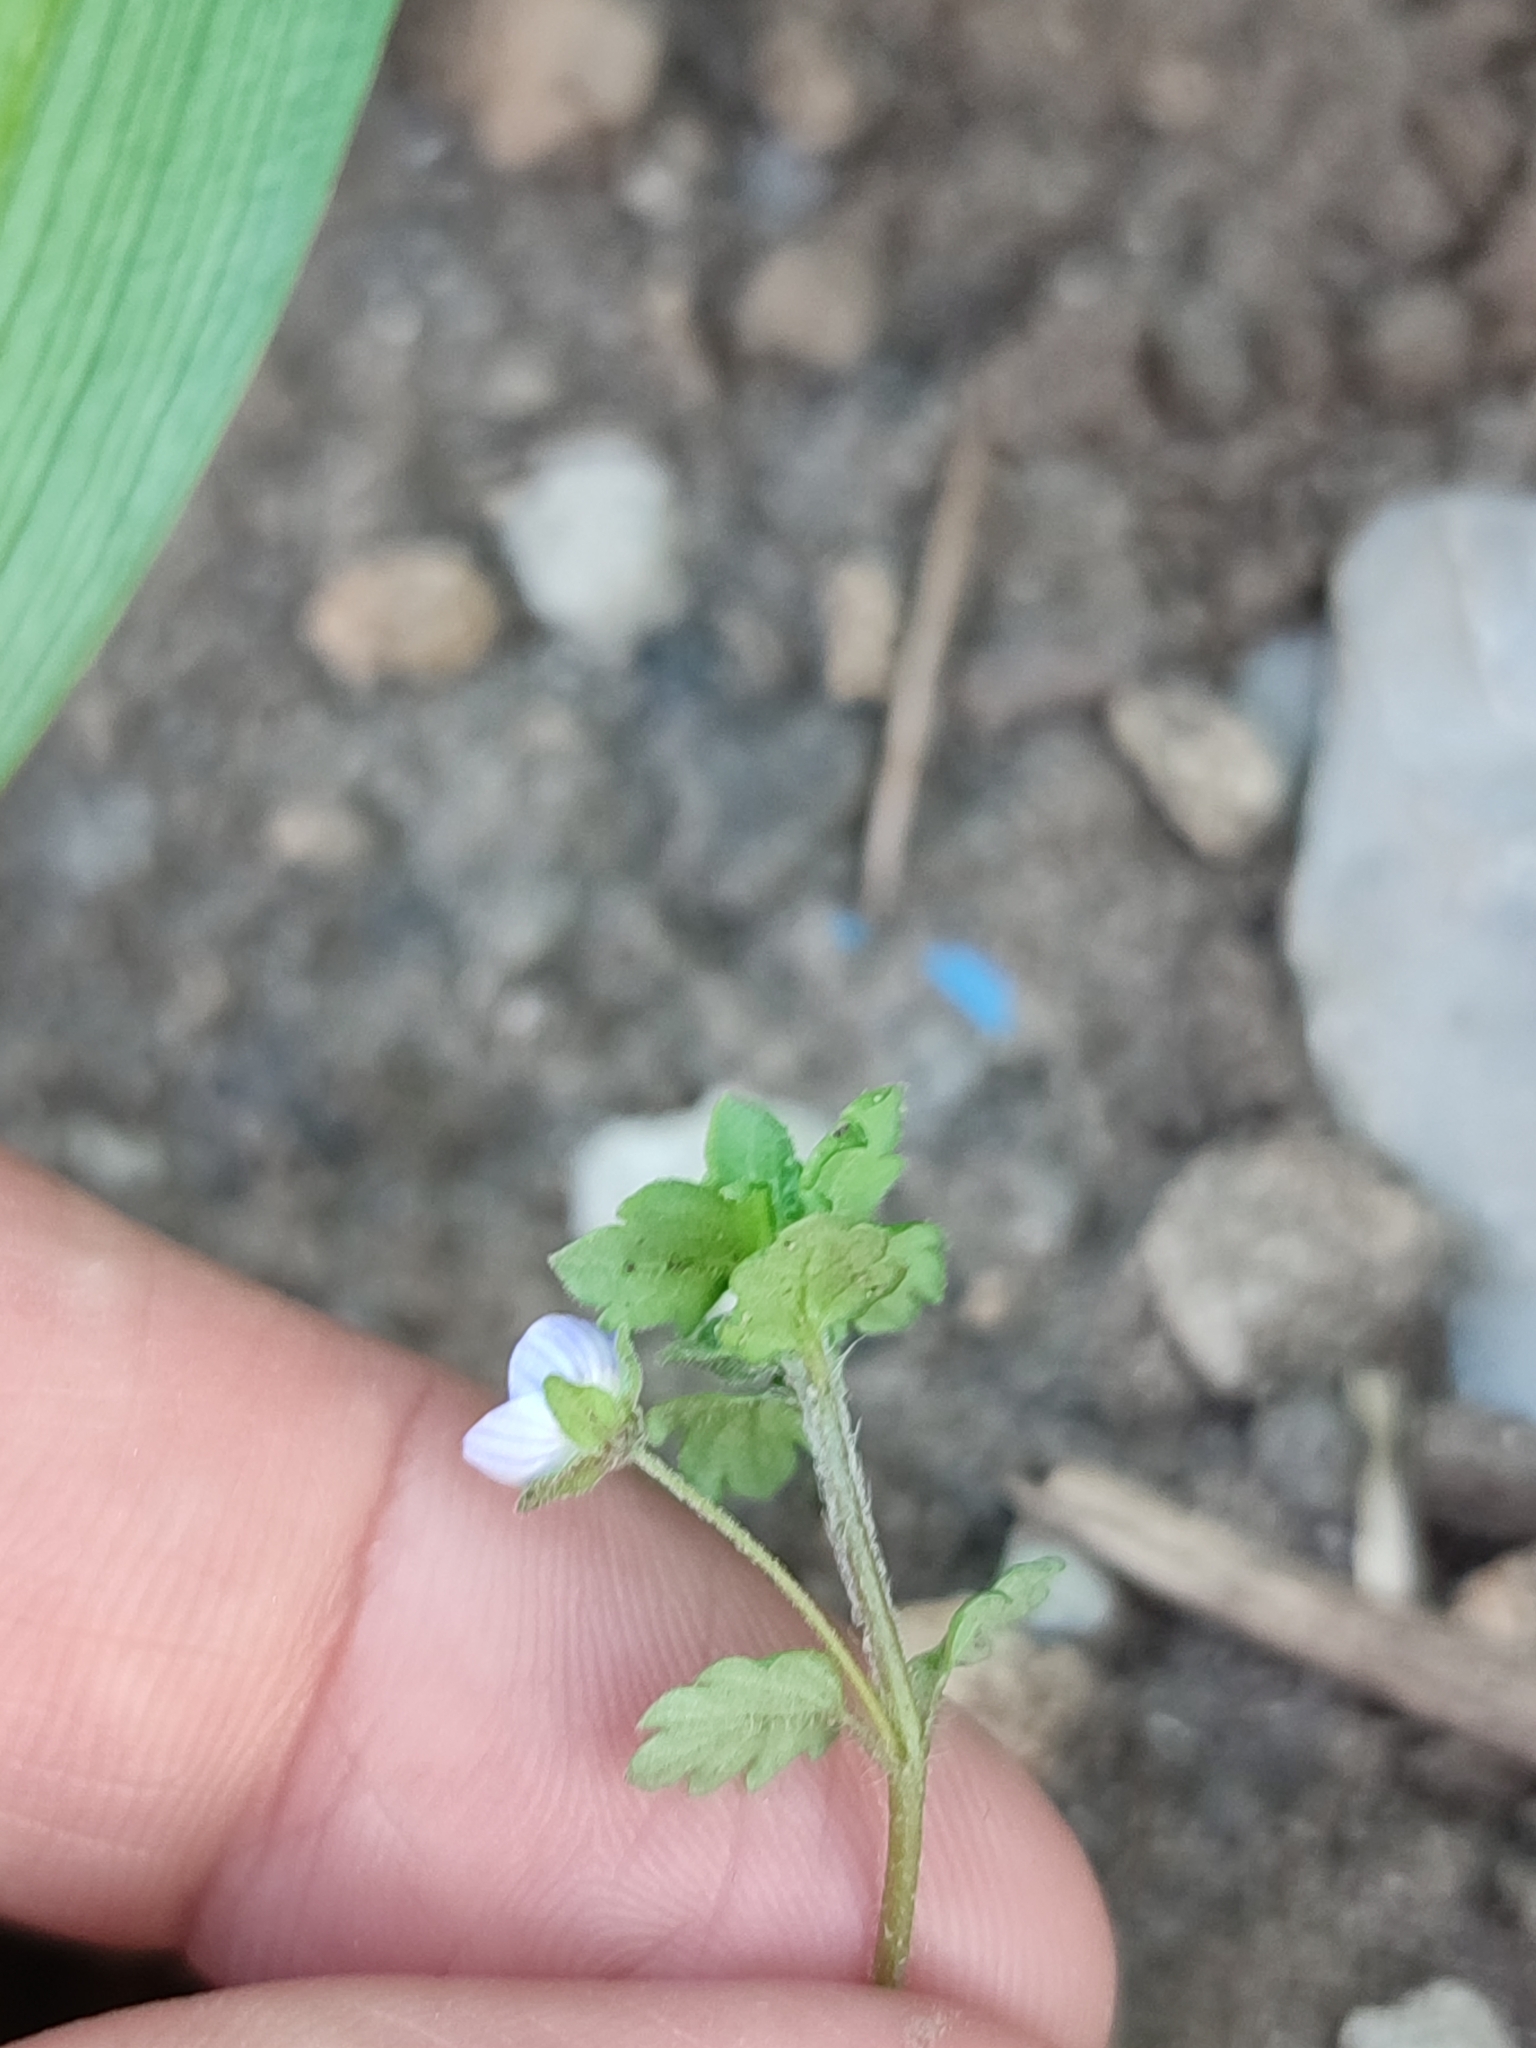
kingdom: Plantae
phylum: Tracheophyta
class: Magnoliopsida
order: Lamiales
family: Plantaginaceae
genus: Veronica
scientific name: Veronica polita
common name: Grey field-speedwell
